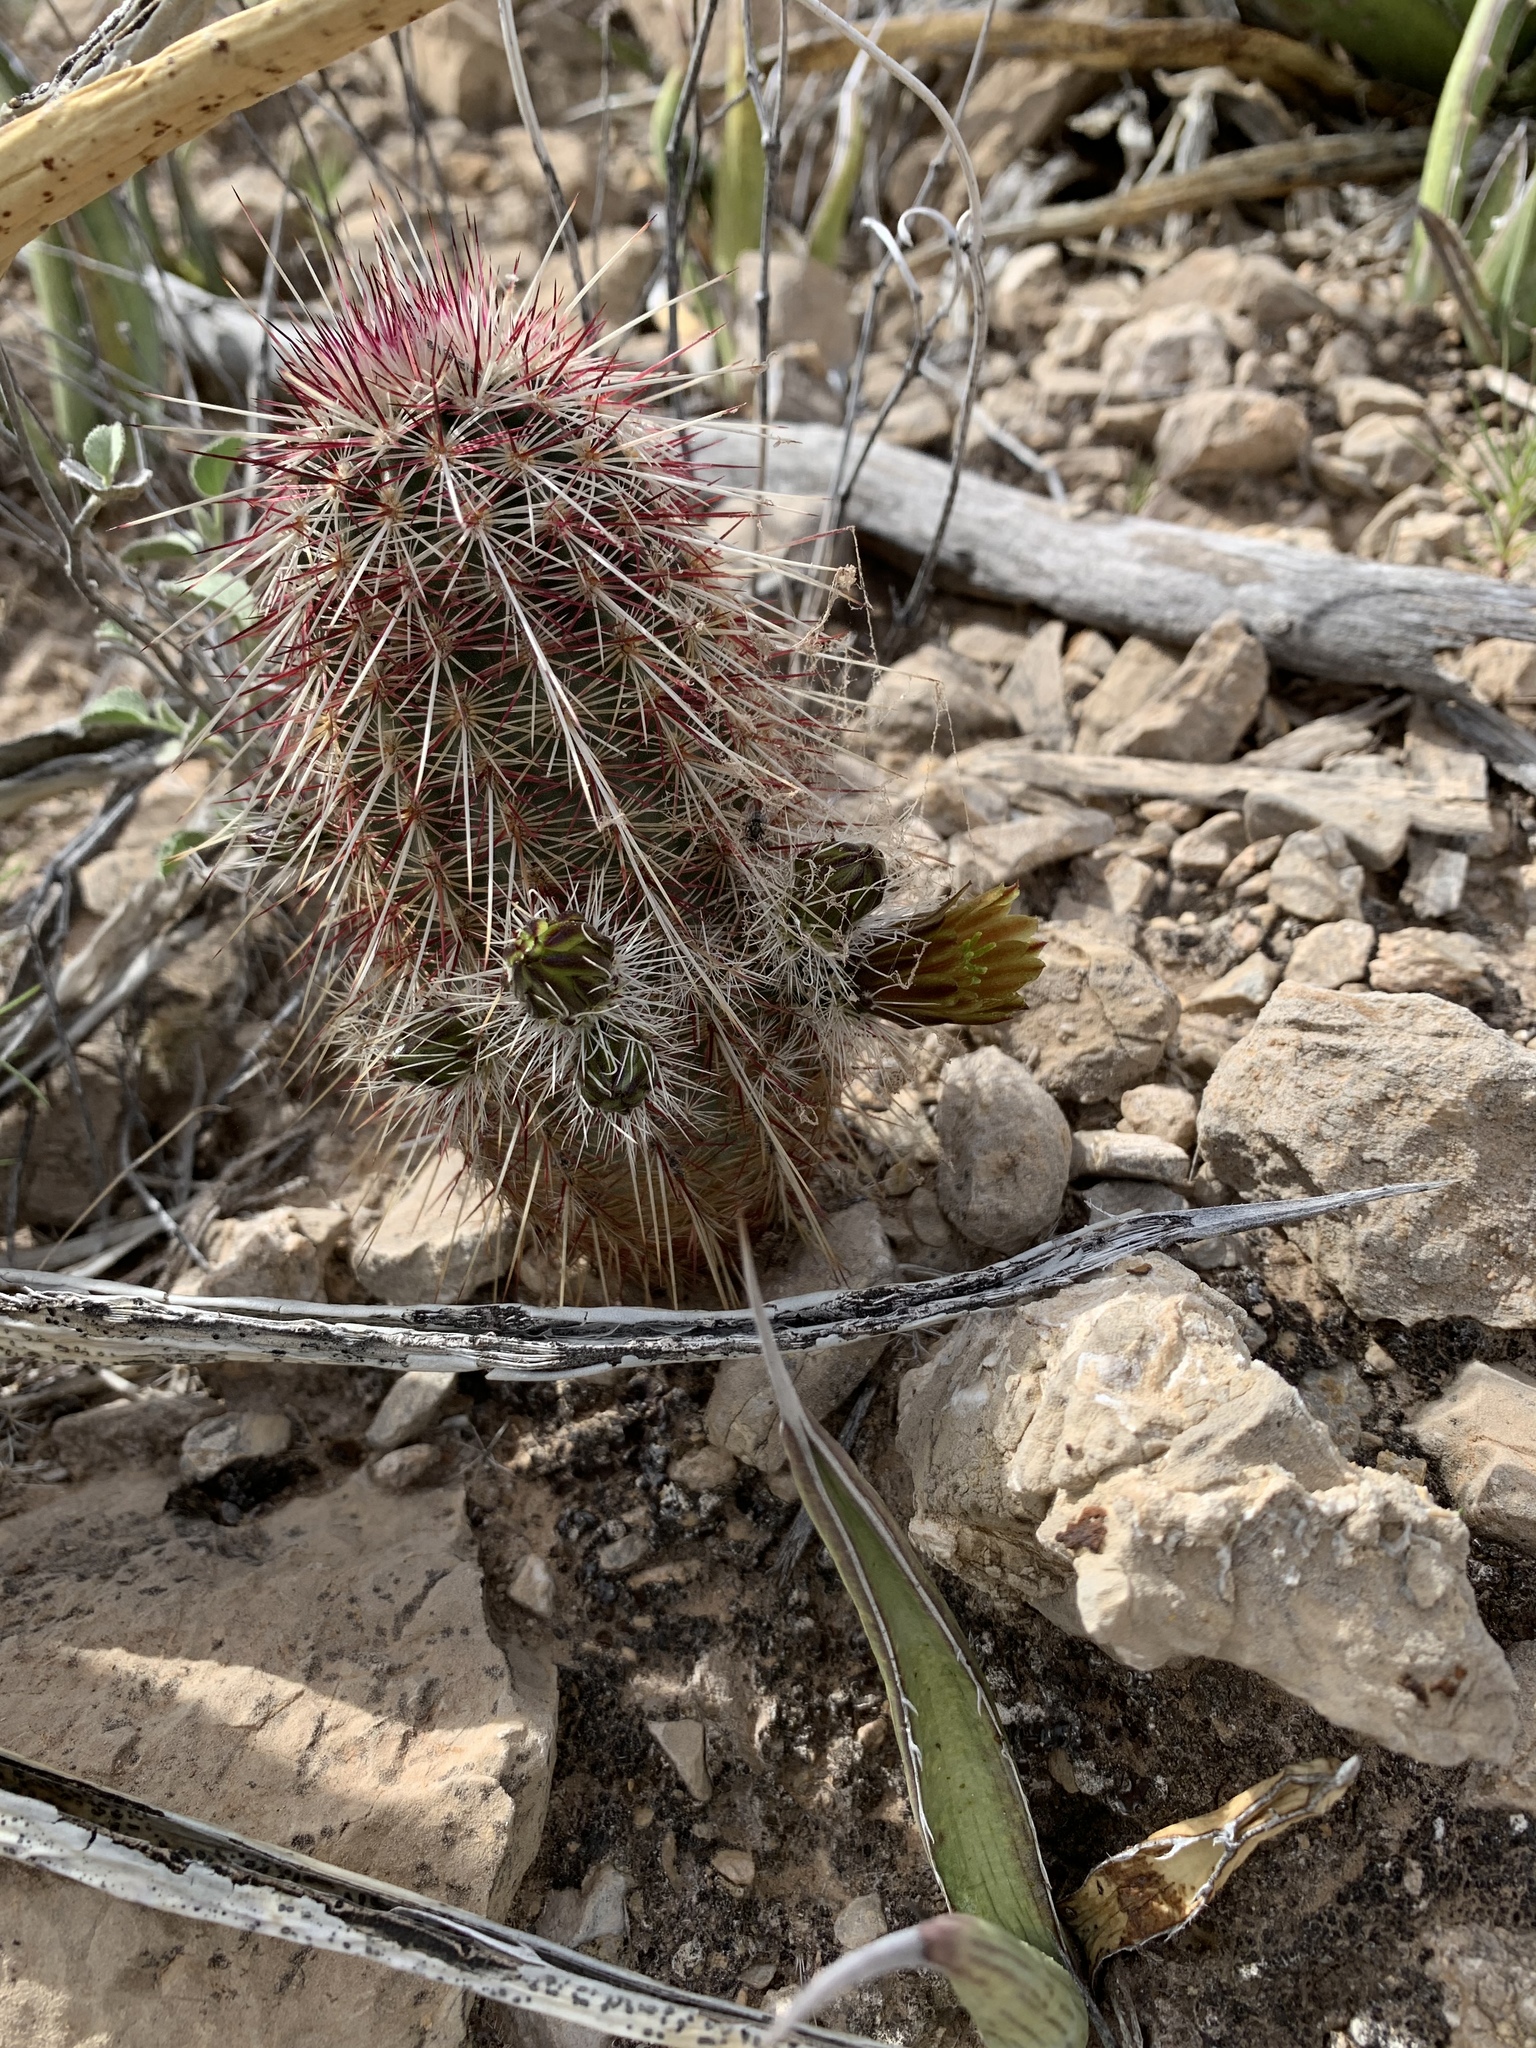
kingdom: Plantae
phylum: Tracheophyta
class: Magnoliopsida
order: Caryophyllales
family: Cactaceae
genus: Echinocereus
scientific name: Echinocereus viridiflorus
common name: Nylon hedgehog cactus
